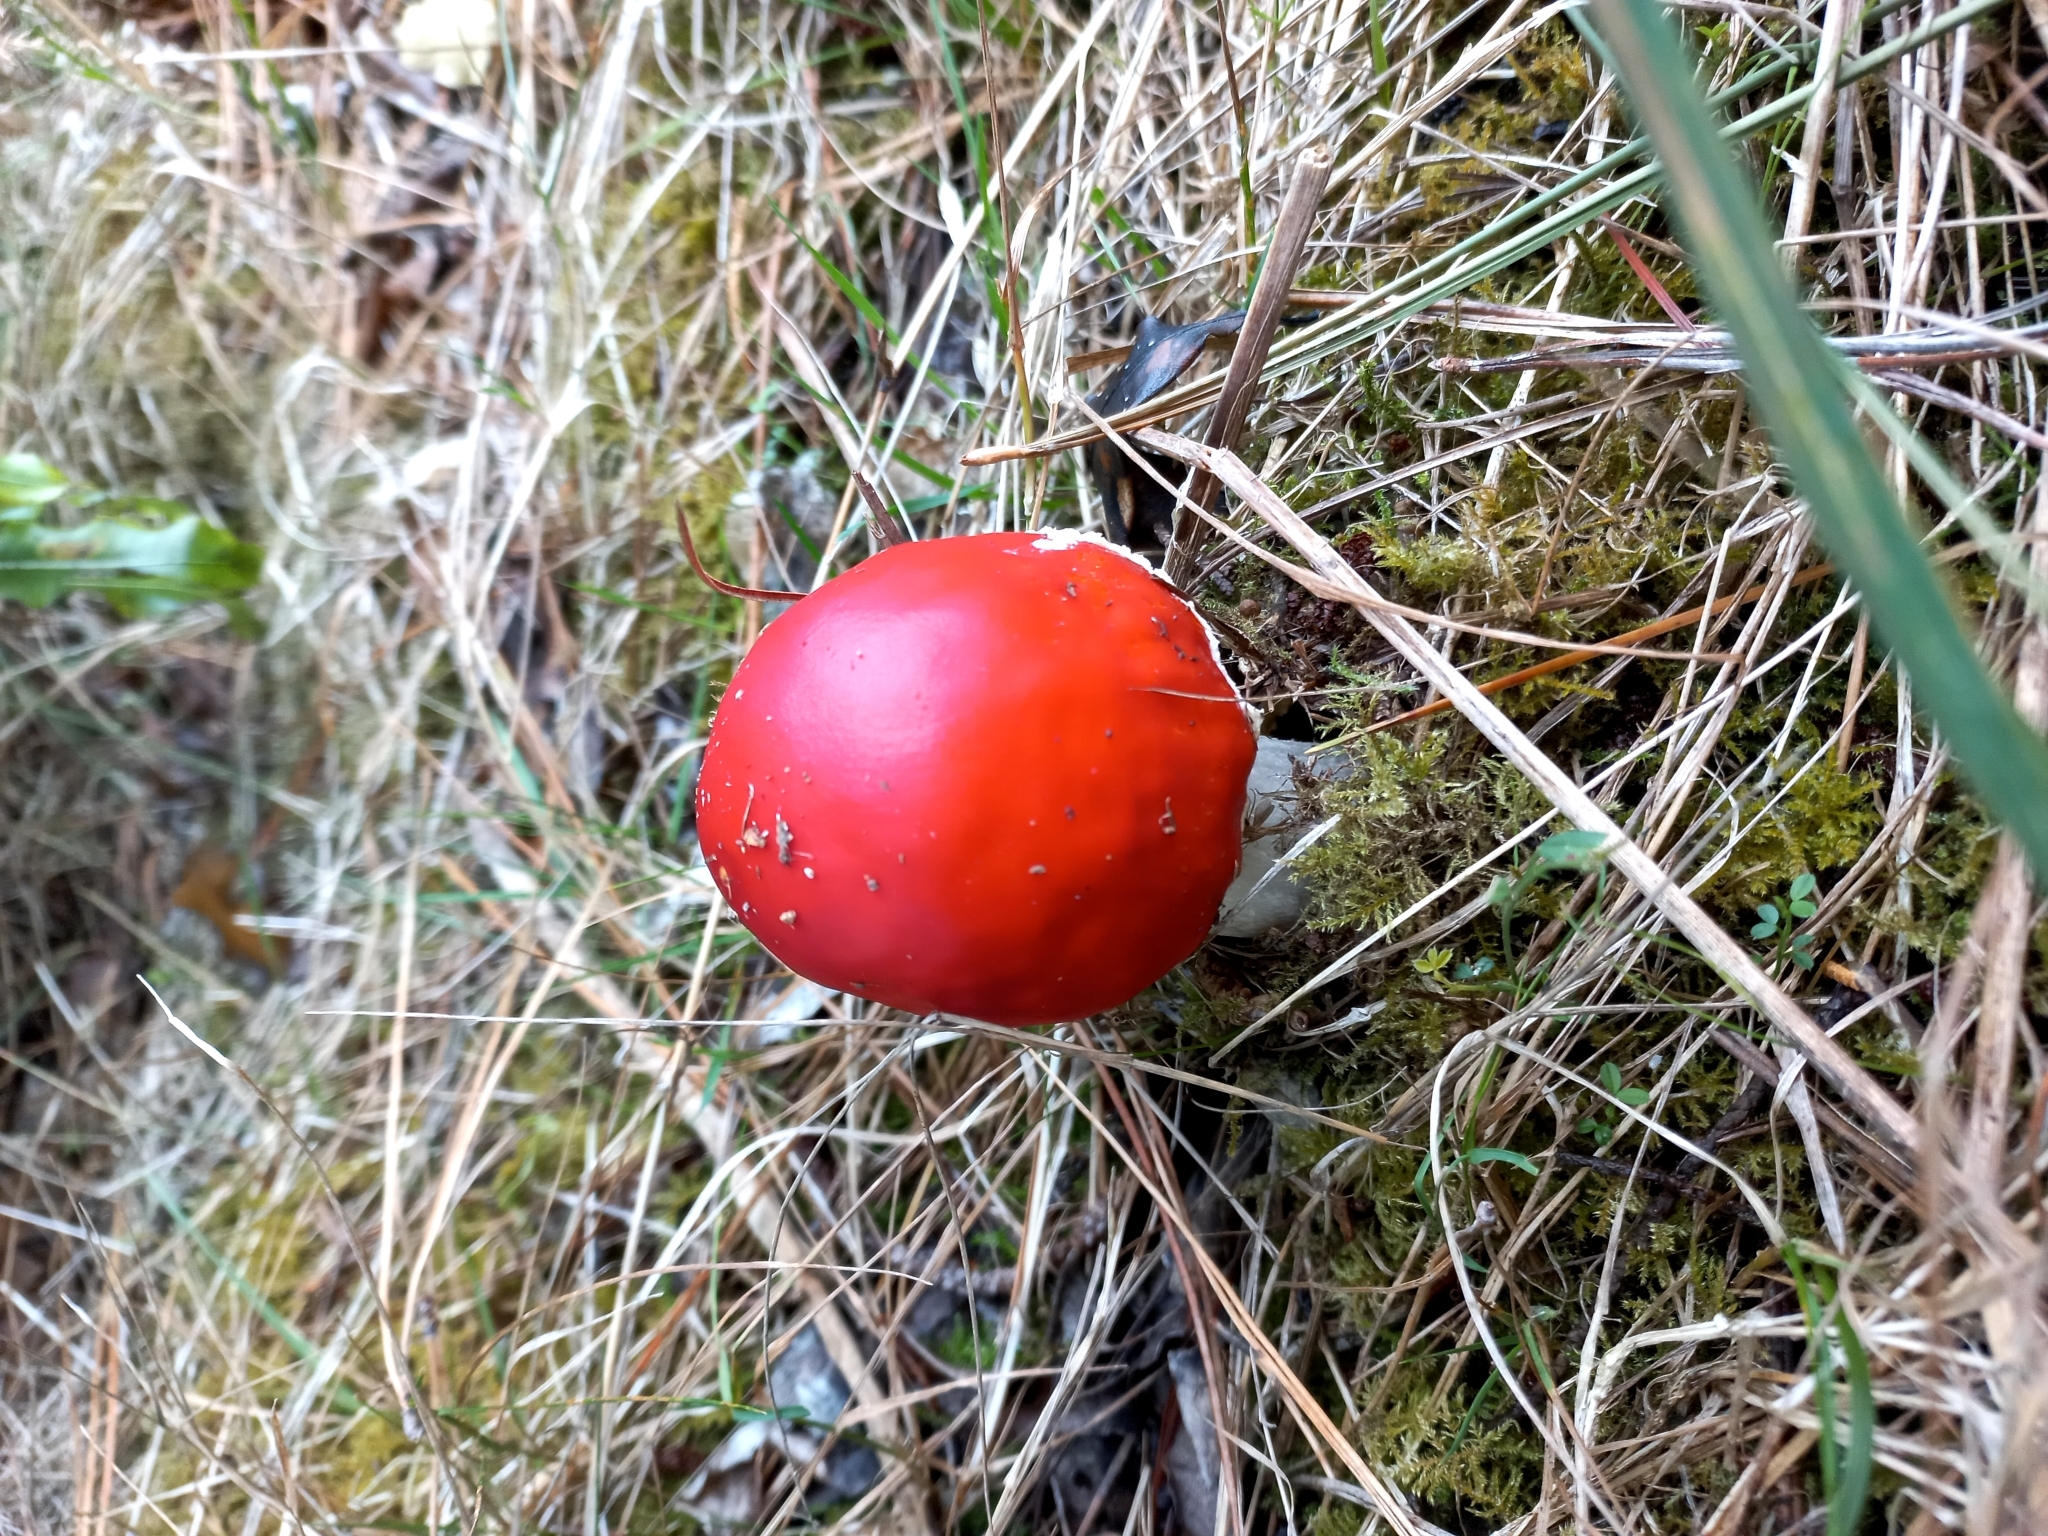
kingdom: Fungi
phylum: Basidiomycota
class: Agaricomycetes
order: Agaricales
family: Amanitaceae
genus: Amanita
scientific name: Amanita muscaria
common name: Fly agaric
